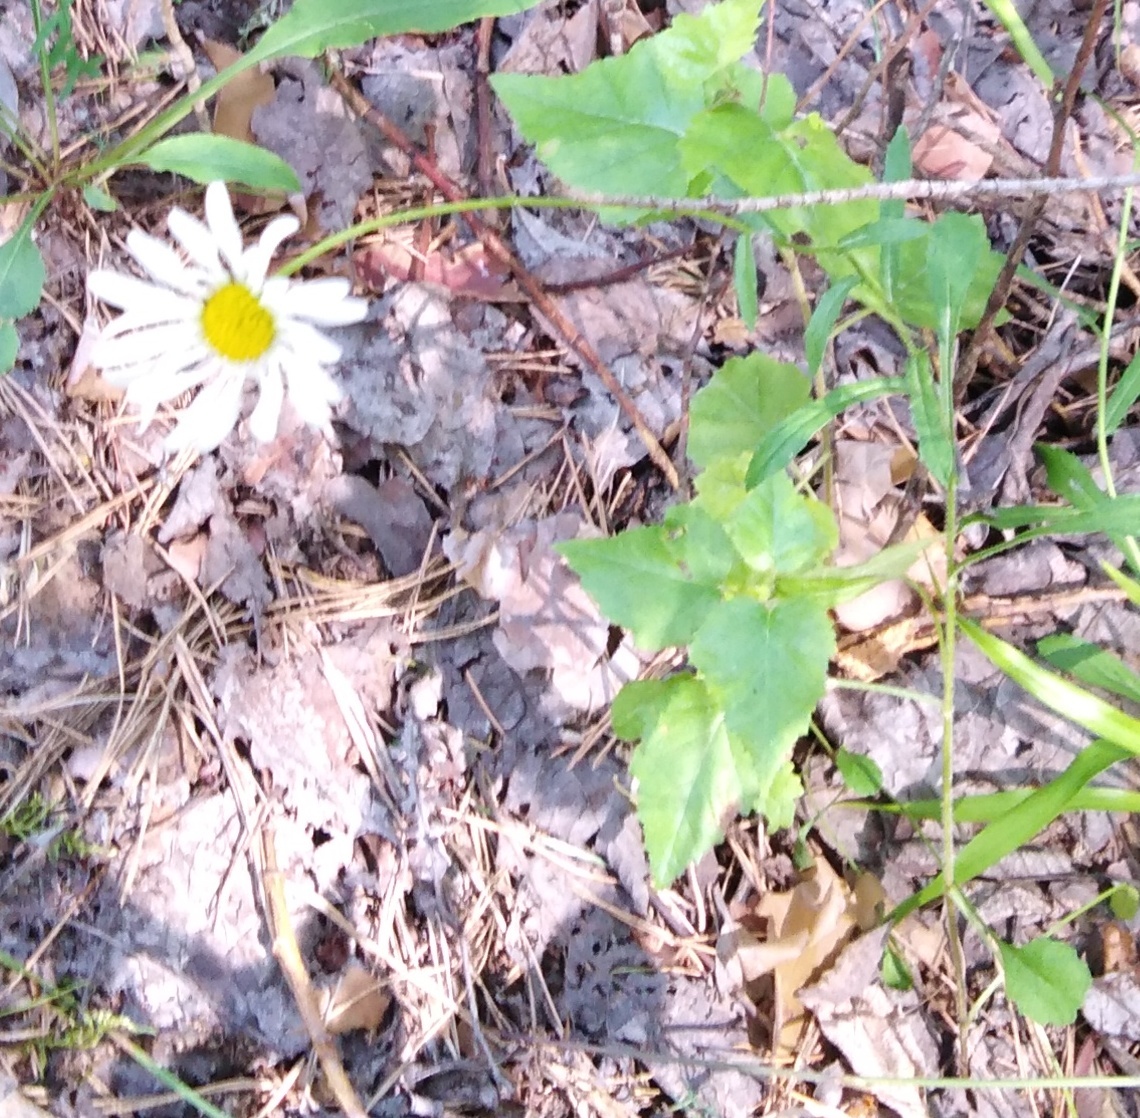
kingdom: Plantae
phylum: Tracheophyta
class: Magnoliopsida
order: Asterales
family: Asteraceae
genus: Leucanthemum
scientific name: Leucanthemum vulgare
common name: Oxeye daisy
